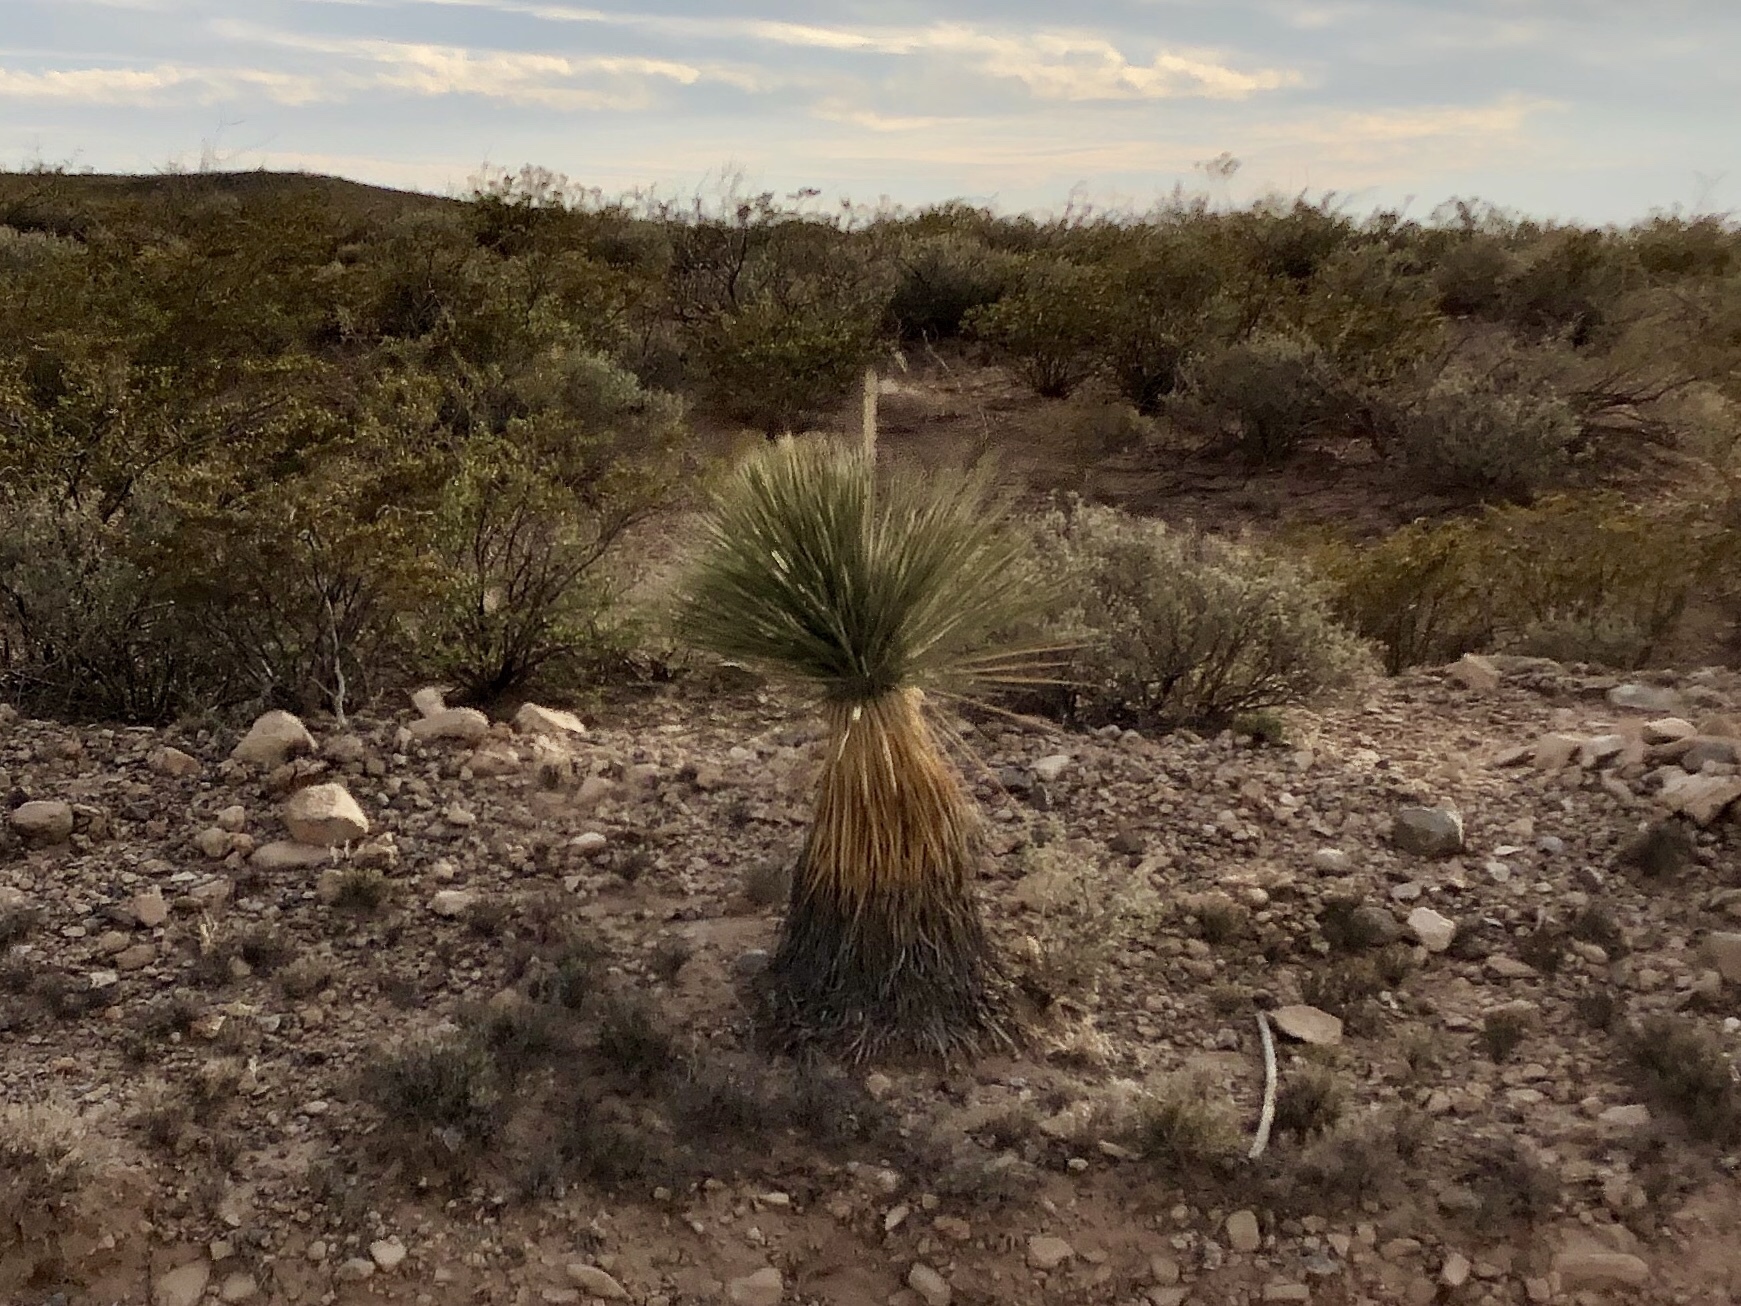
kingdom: Plantae
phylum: Tracheophyta
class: Liliopsida
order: Asparagales
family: Asparagaceae
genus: Yucca
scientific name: Yucca elata
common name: Palmella
